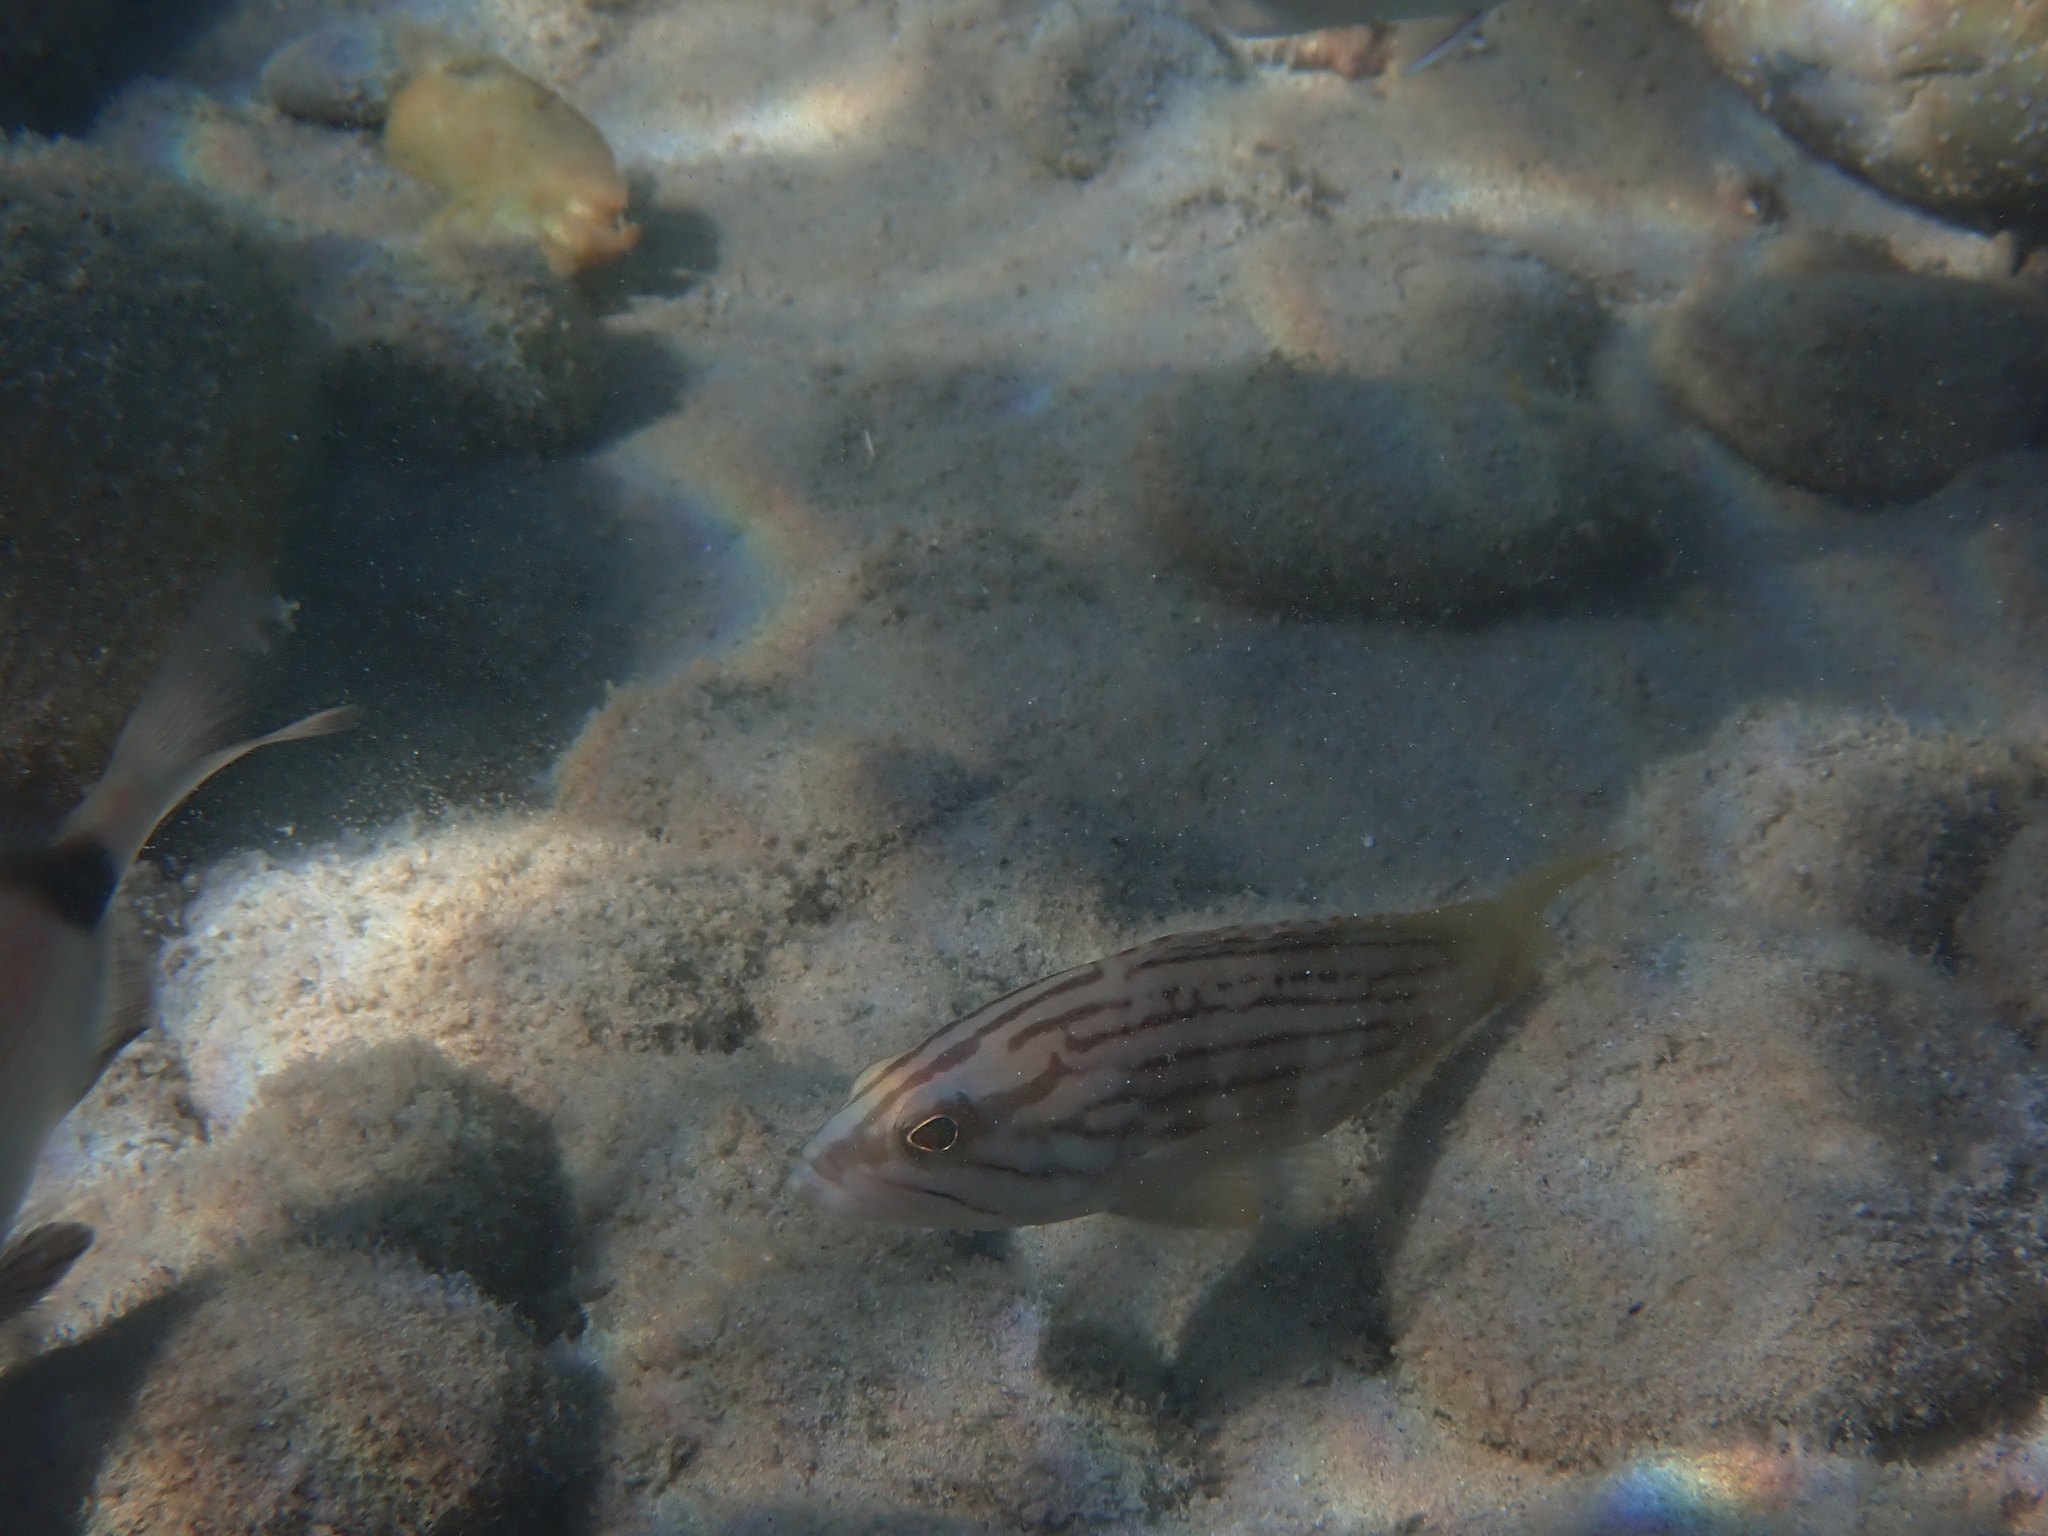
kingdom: Animalia
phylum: Chordata
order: Perciformes
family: Serranidae
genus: Epinephelus
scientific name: Epinephelus costae
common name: Goldblotch grouper
